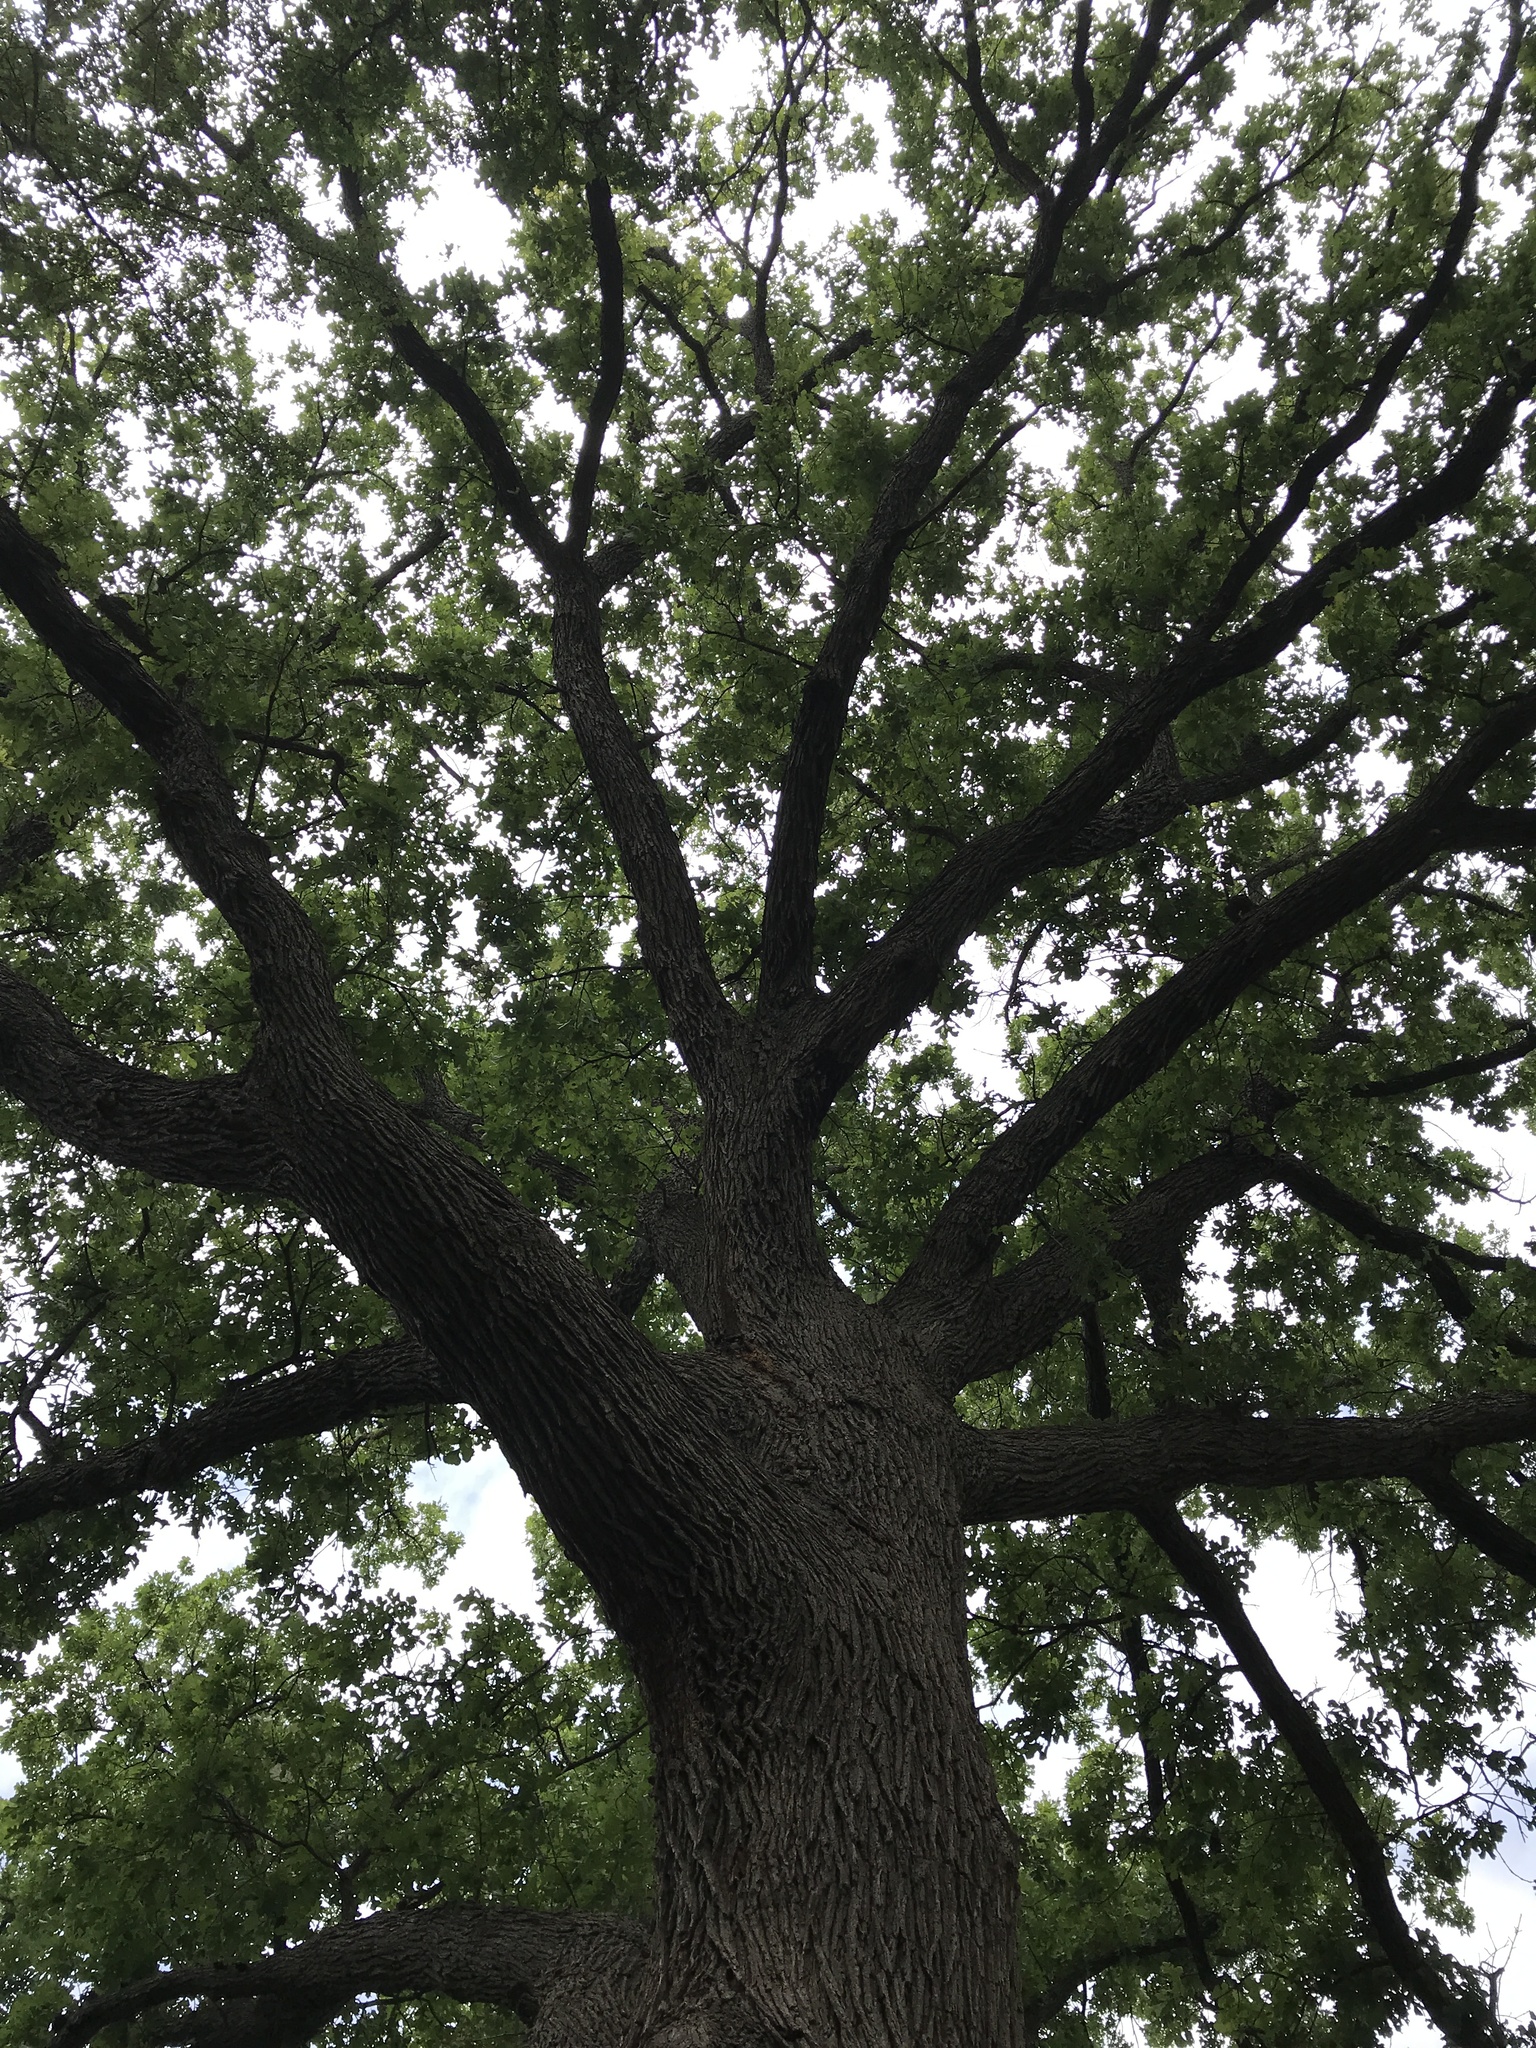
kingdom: Plantae
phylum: Tracheophyta
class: Magnoliopsida
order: Fagales
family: Fagaceae
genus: Quercus
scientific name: Quercus macrocarpa
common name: Bur oak
